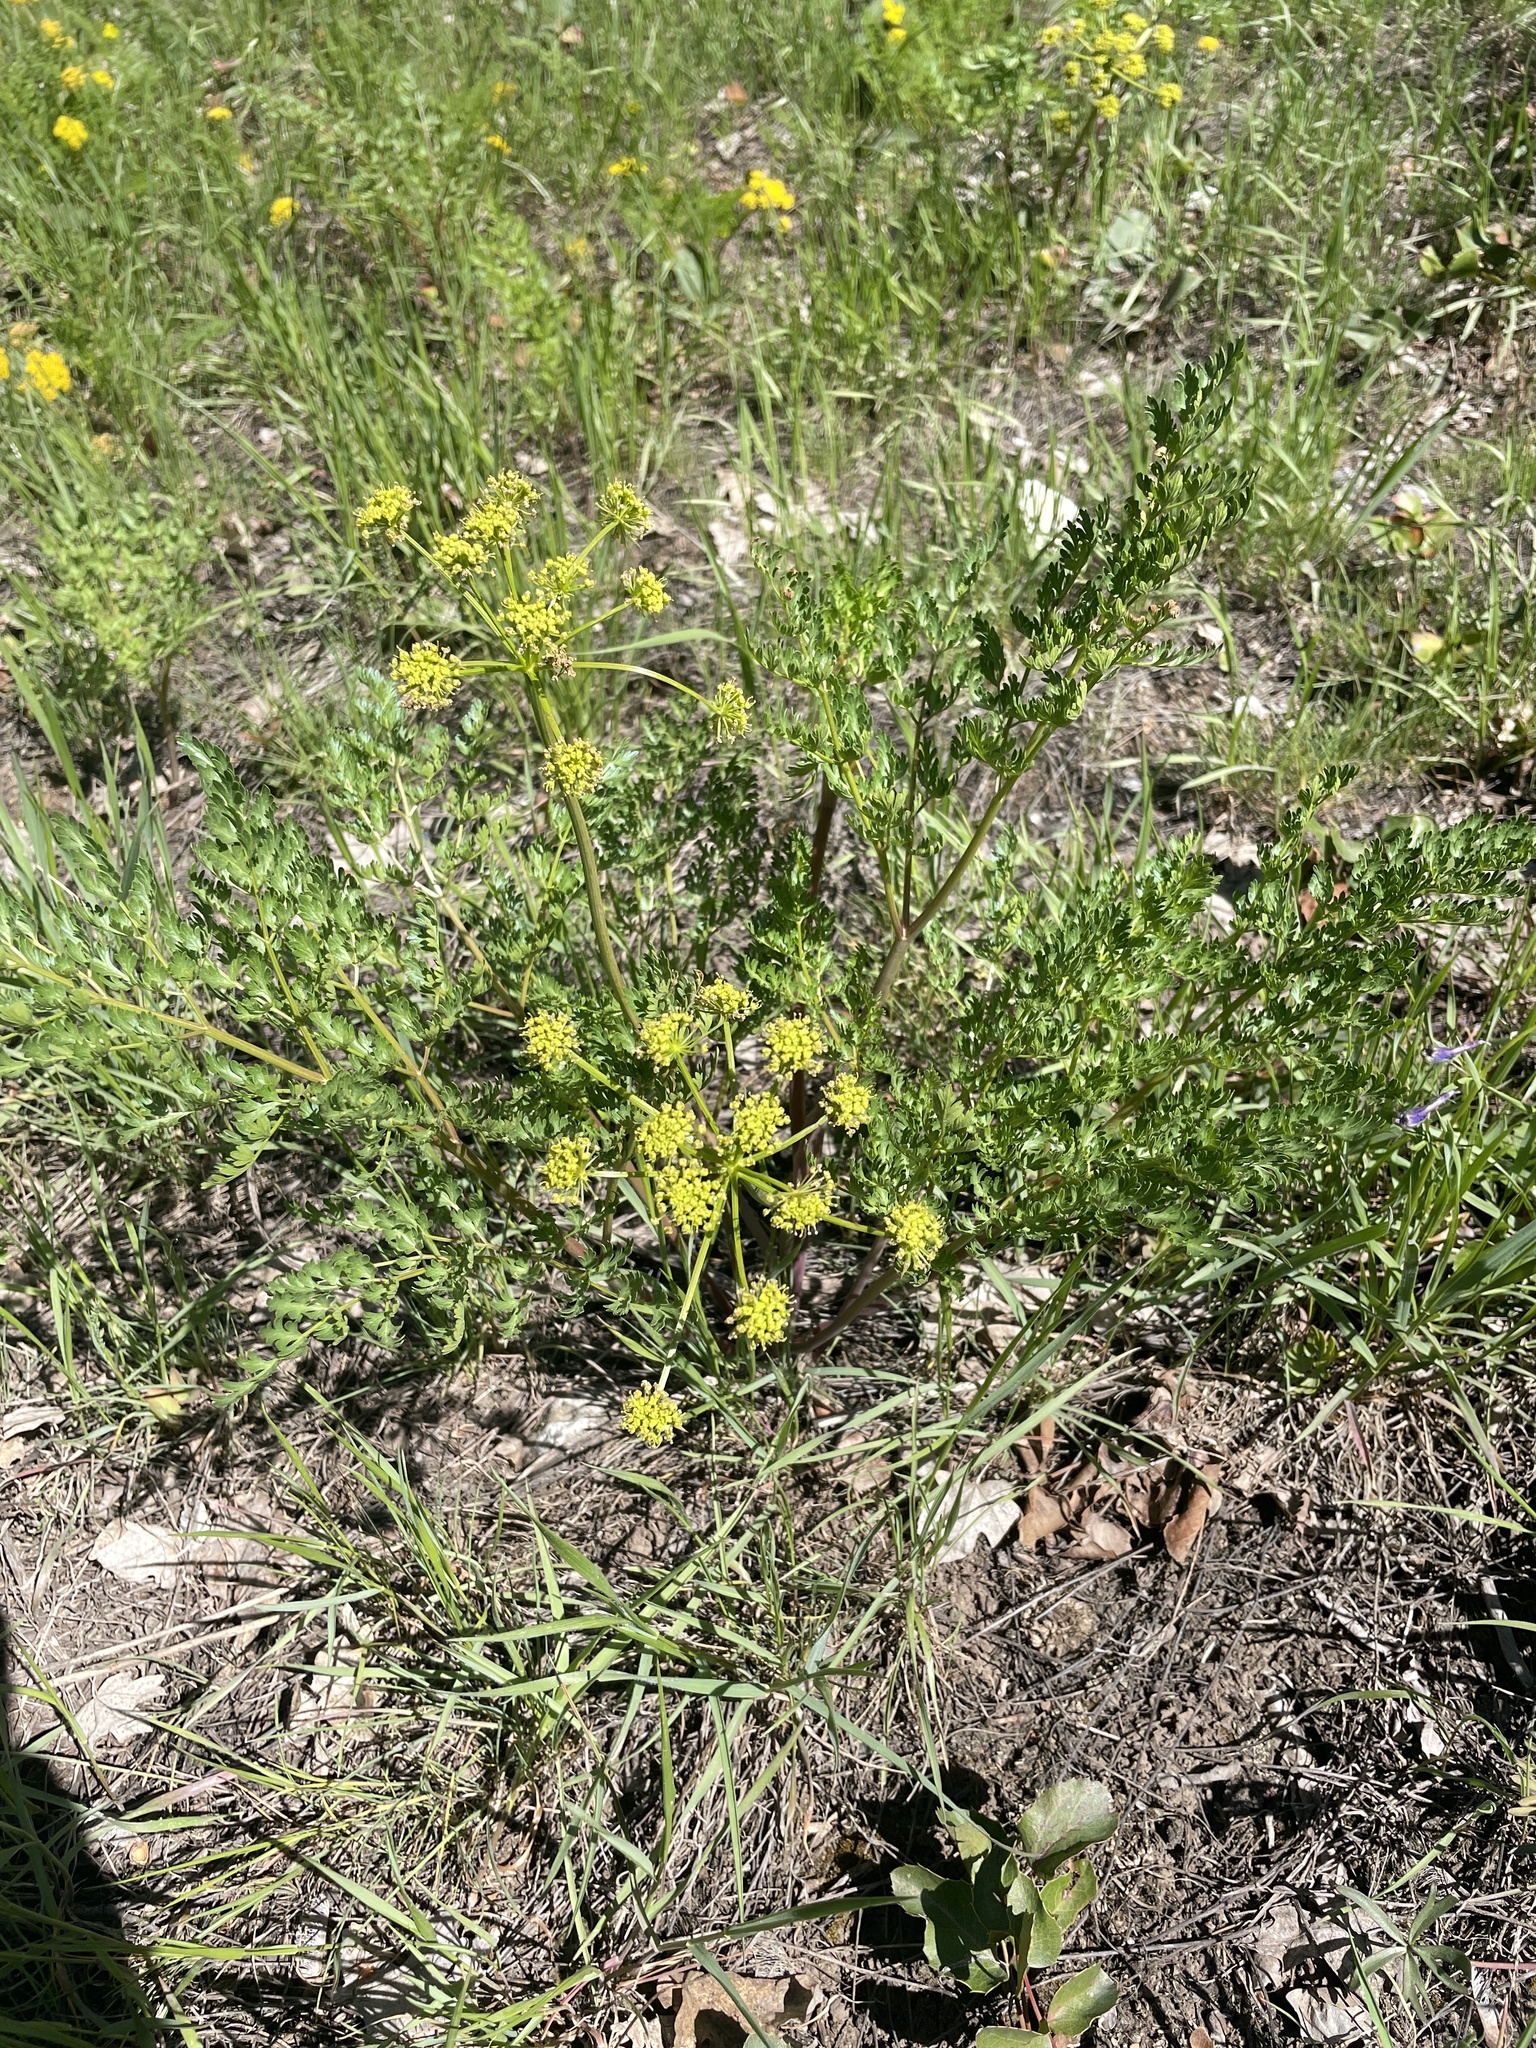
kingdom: Plantae
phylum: Tracheophyta
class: Magnoliopsida
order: Apiales
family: Apiaceae
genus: Lomatium
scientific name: Lomatium multifidum
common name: Carrot-leaved biscuitroot
